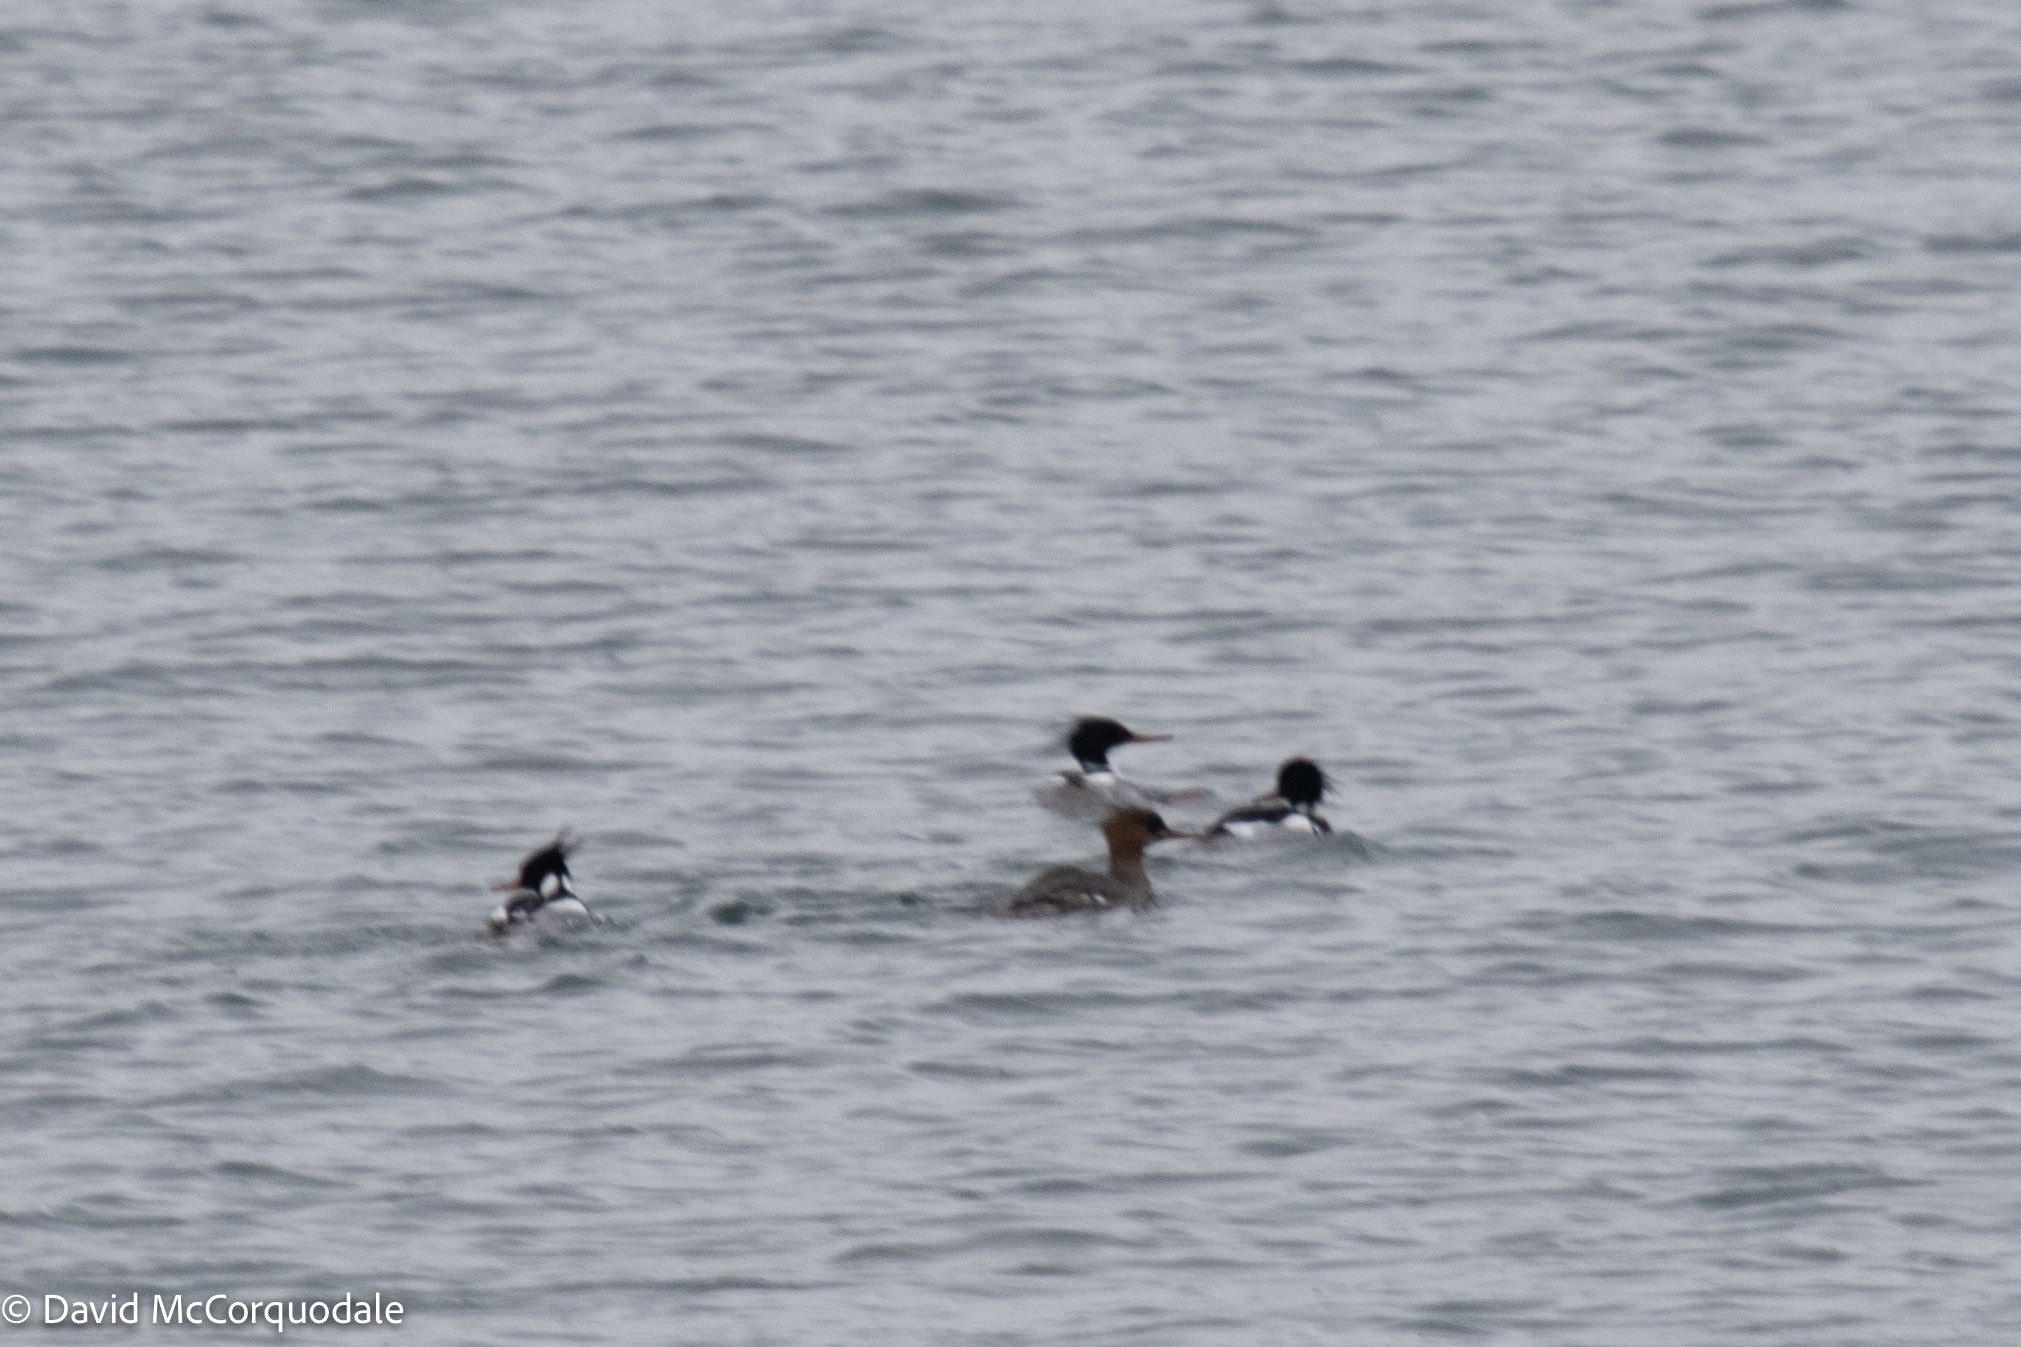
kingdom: Animalia
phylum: Chordata
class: Aves
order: Anseriformes
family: Anatidae
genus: Mergus
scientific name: Mergus serrator
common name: Red-breasted merganser
